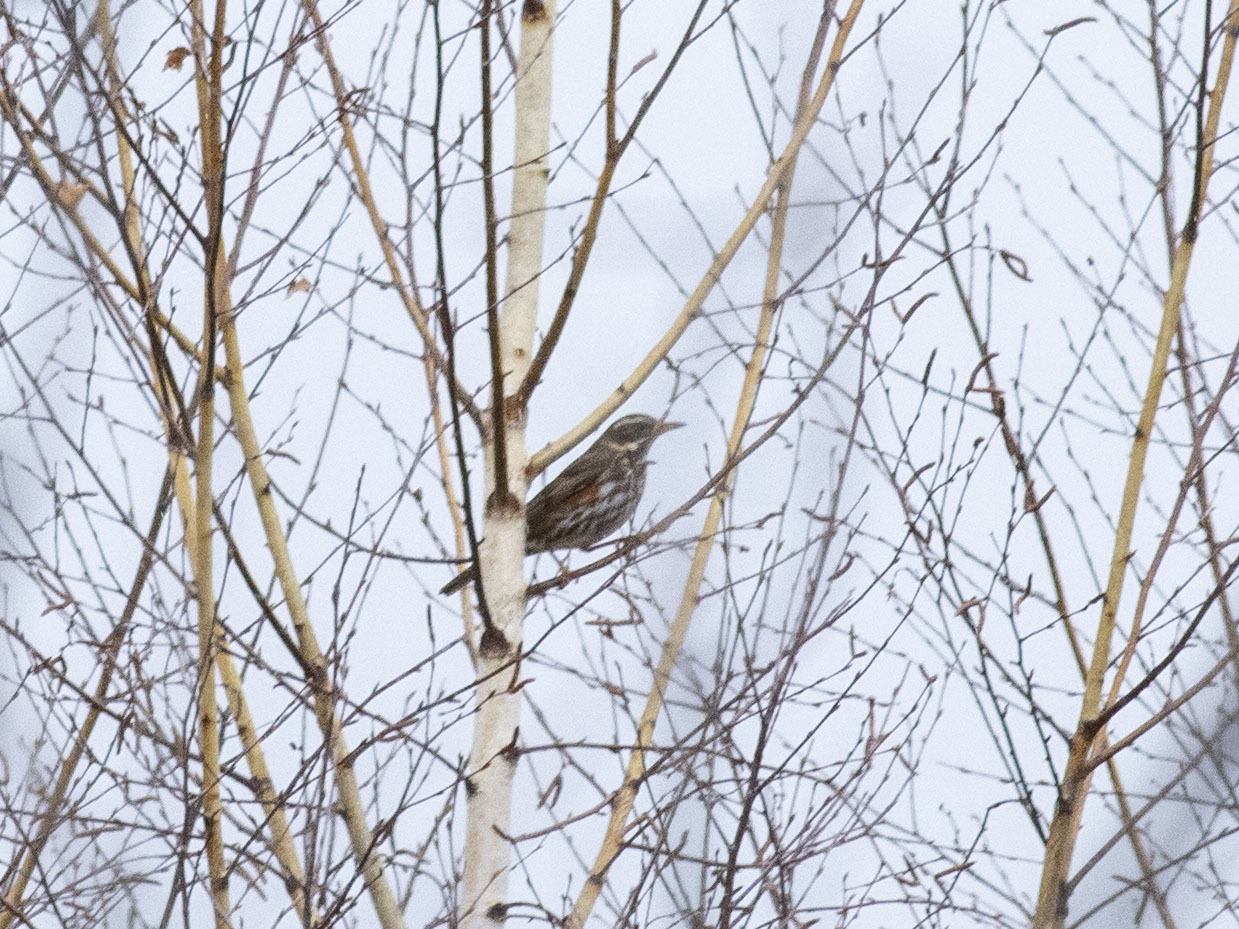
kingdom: Animalia
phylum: Chordata
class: Aves
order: Passeriformes
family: Turdidae
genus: Turdus
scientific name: Turdus iliacus
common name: Redwing
